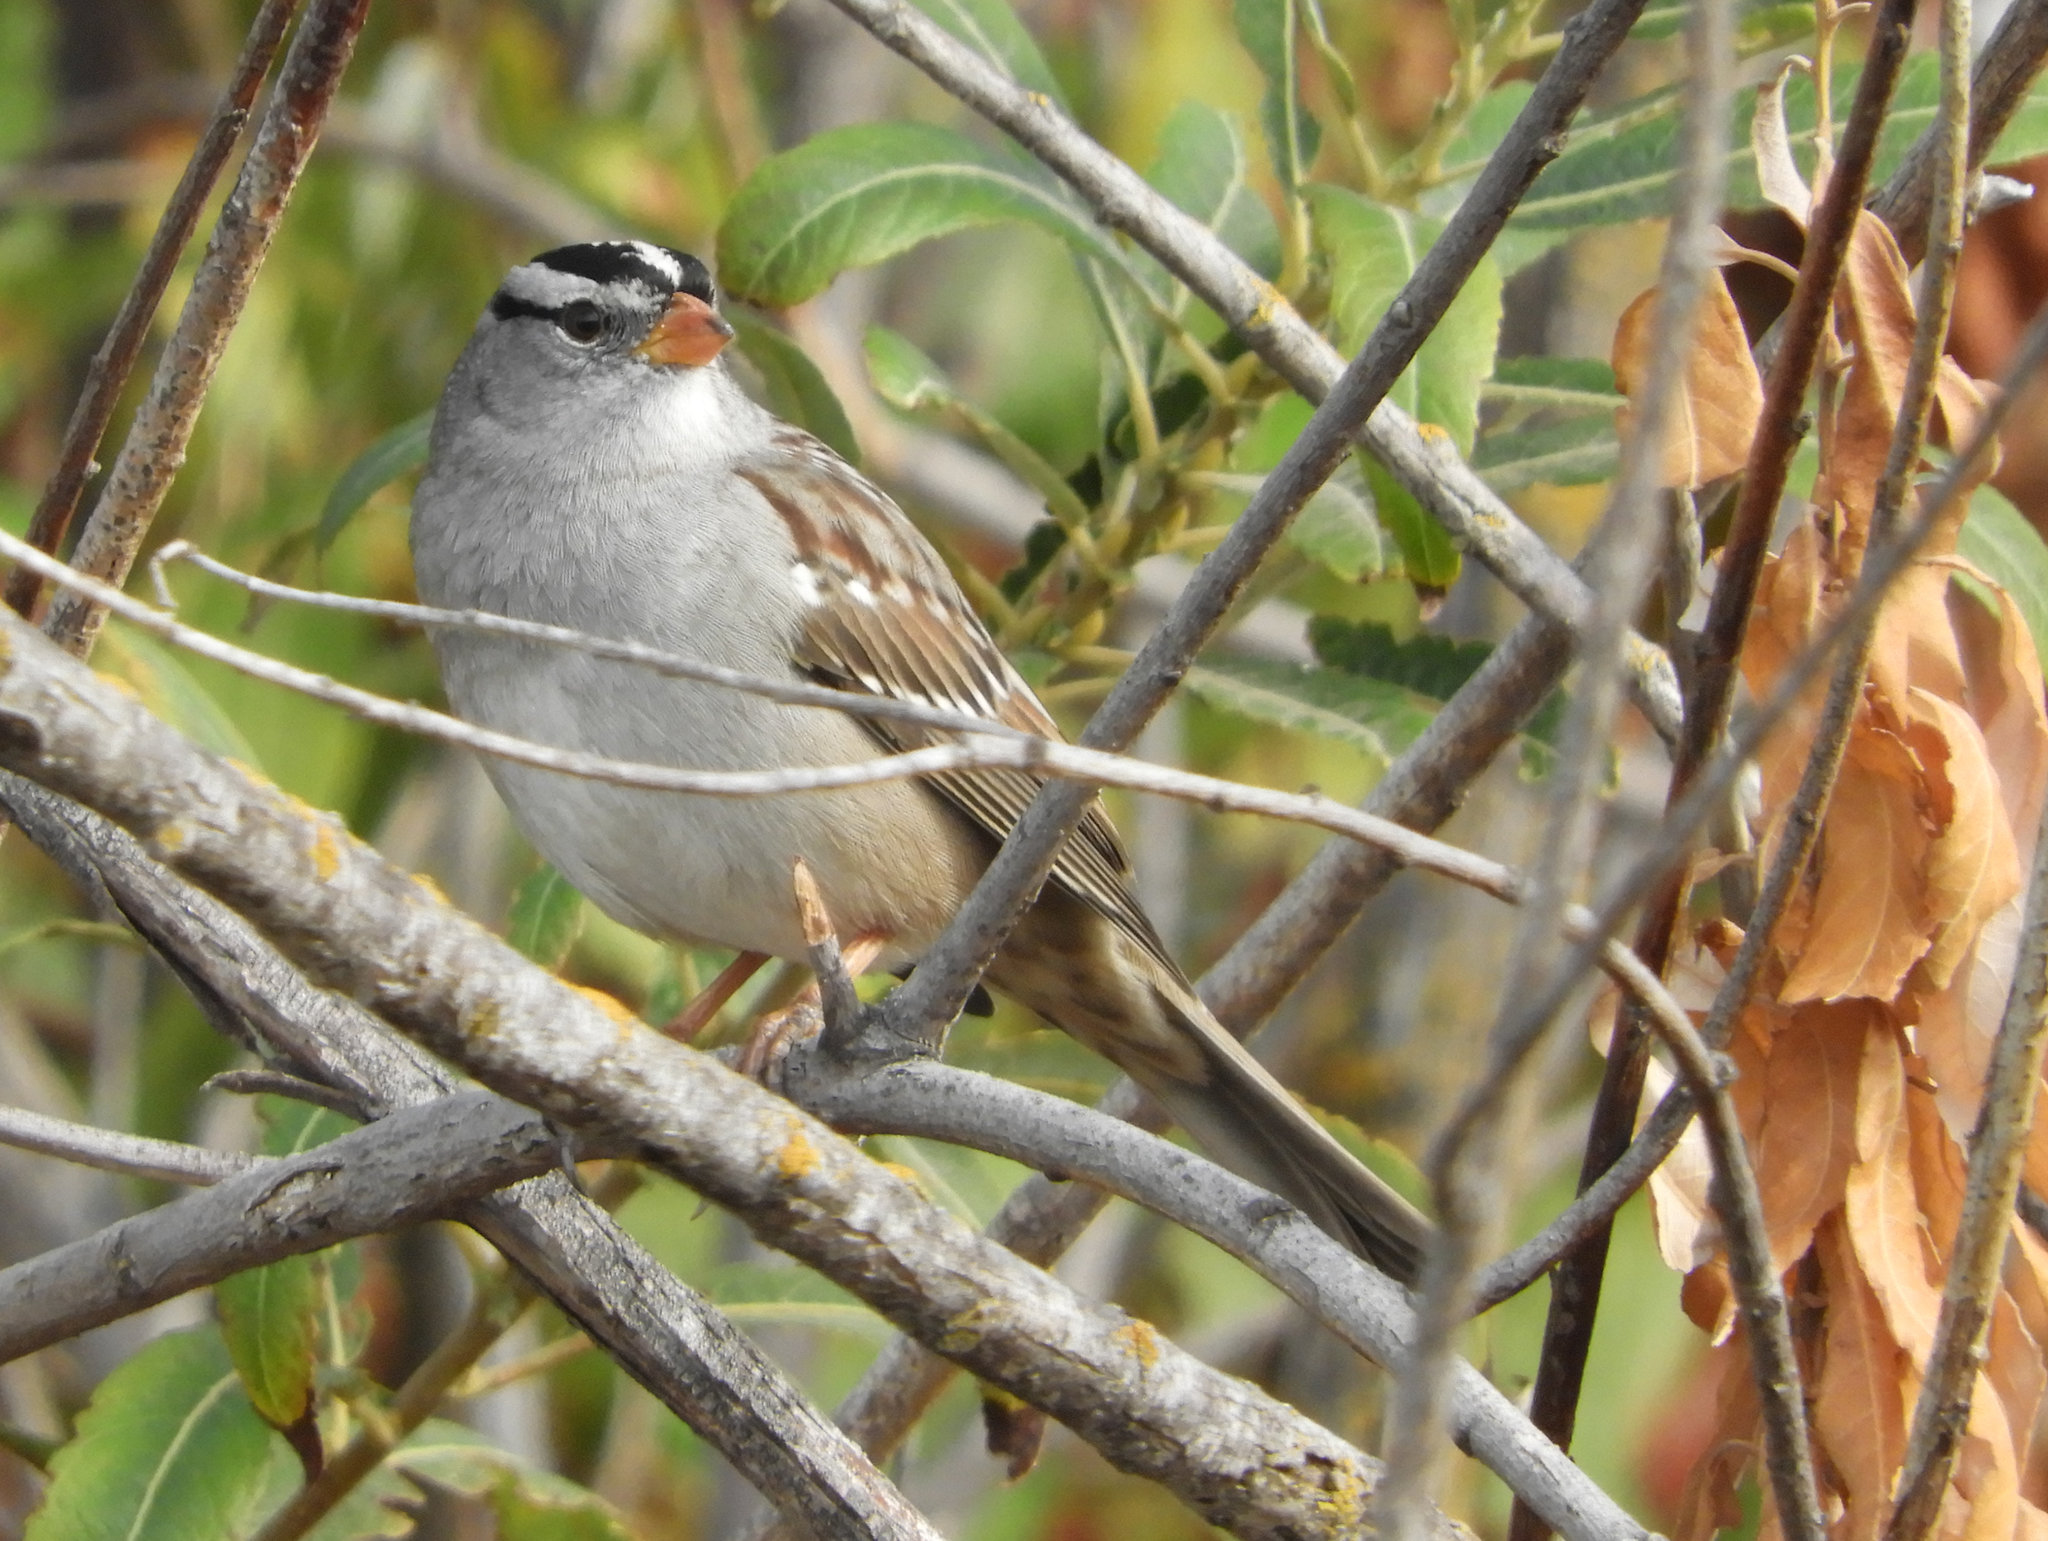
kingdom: Animalia
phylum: Chordata
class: Aves
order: Passeriformes
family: Passerellidae
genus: Zonotrichia
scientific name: Zonotrichia leucophrys
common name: White-crowned sparrow
